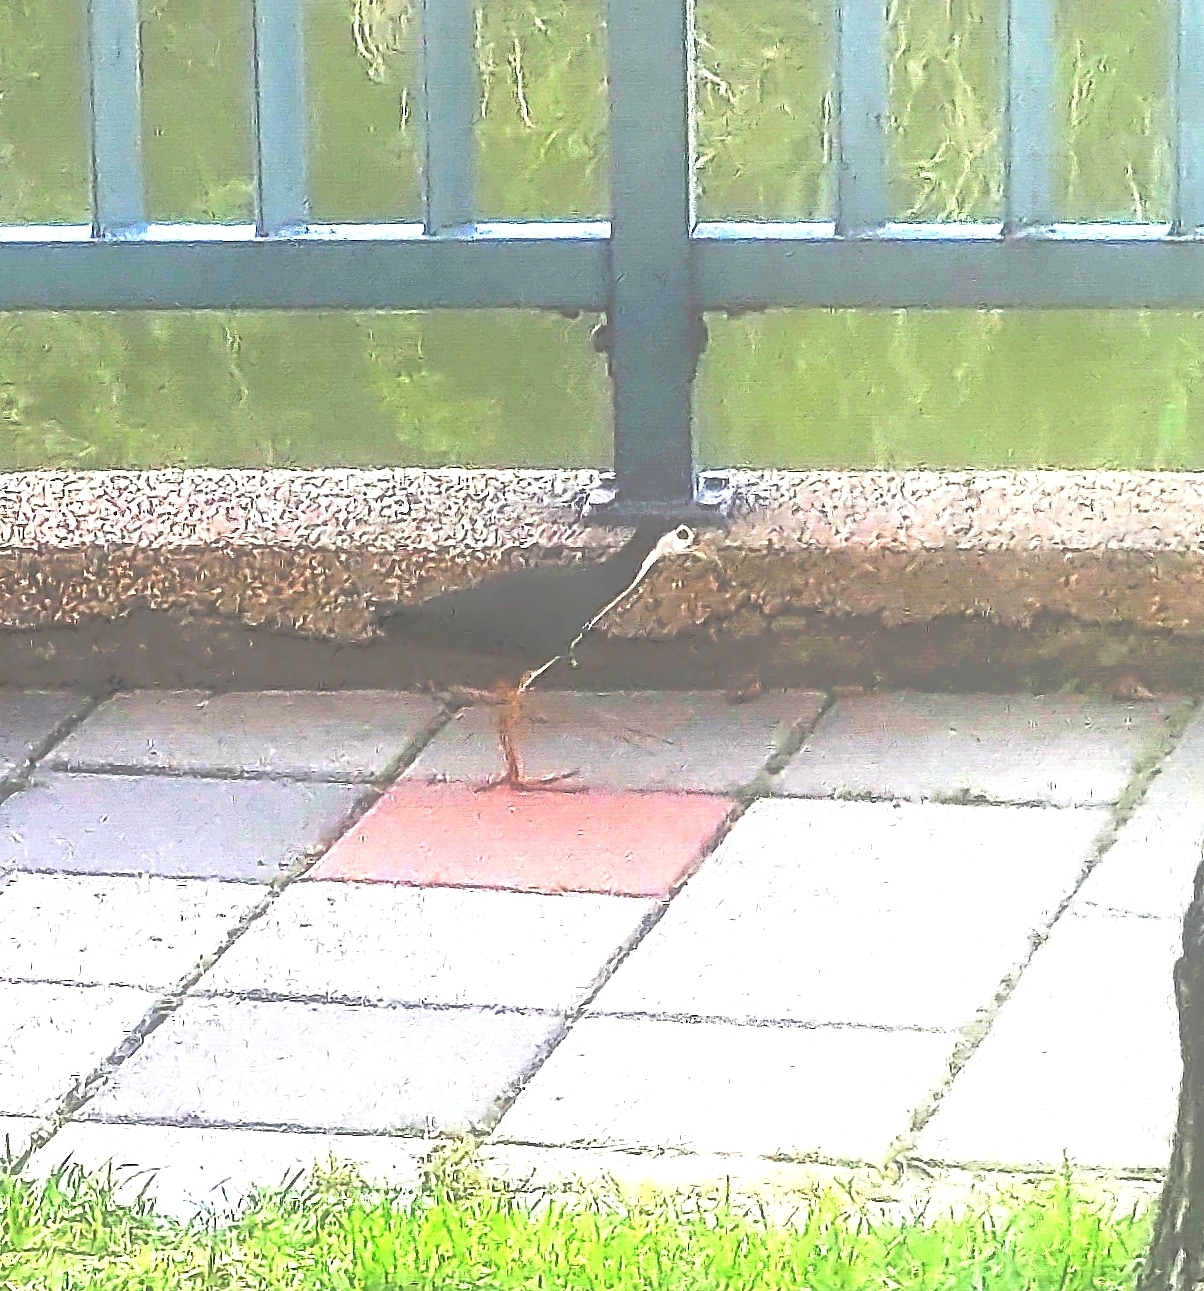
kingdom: Animalia
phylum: Chordata
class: Aves
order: Gruiformes
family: Rallidae
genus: Amaurornis
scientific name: Amaurornis phoenicurus
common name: White-breasted waterhen
